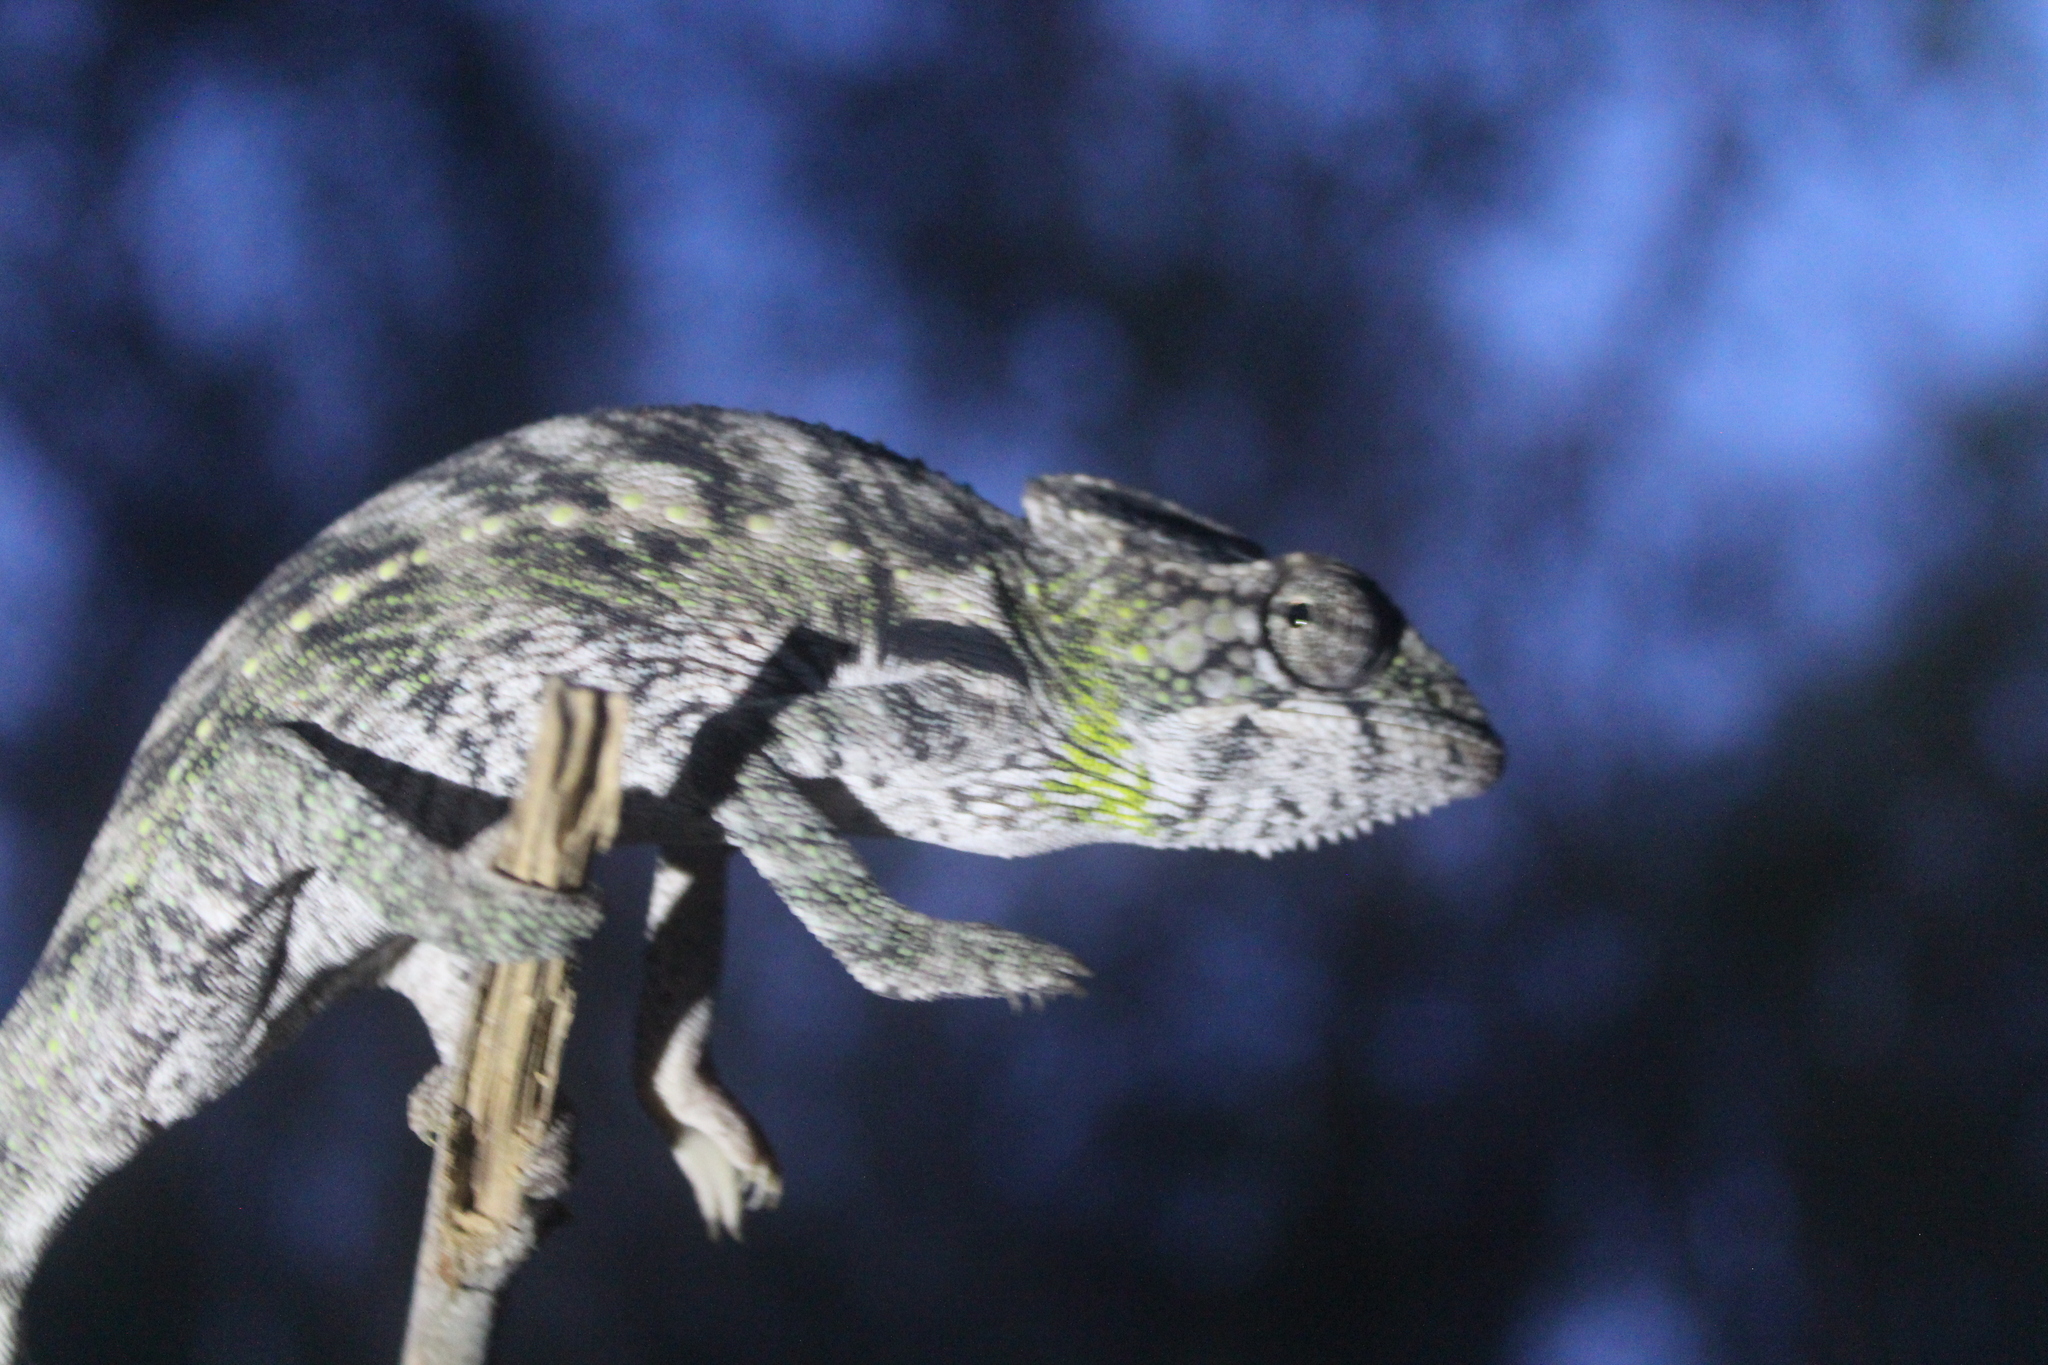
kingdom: Animalia
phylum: Chordata
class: Squamata
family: Chamaeleonidae
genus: Furcifer
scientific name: Furcifer verrucosus
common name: Warty chameleon
